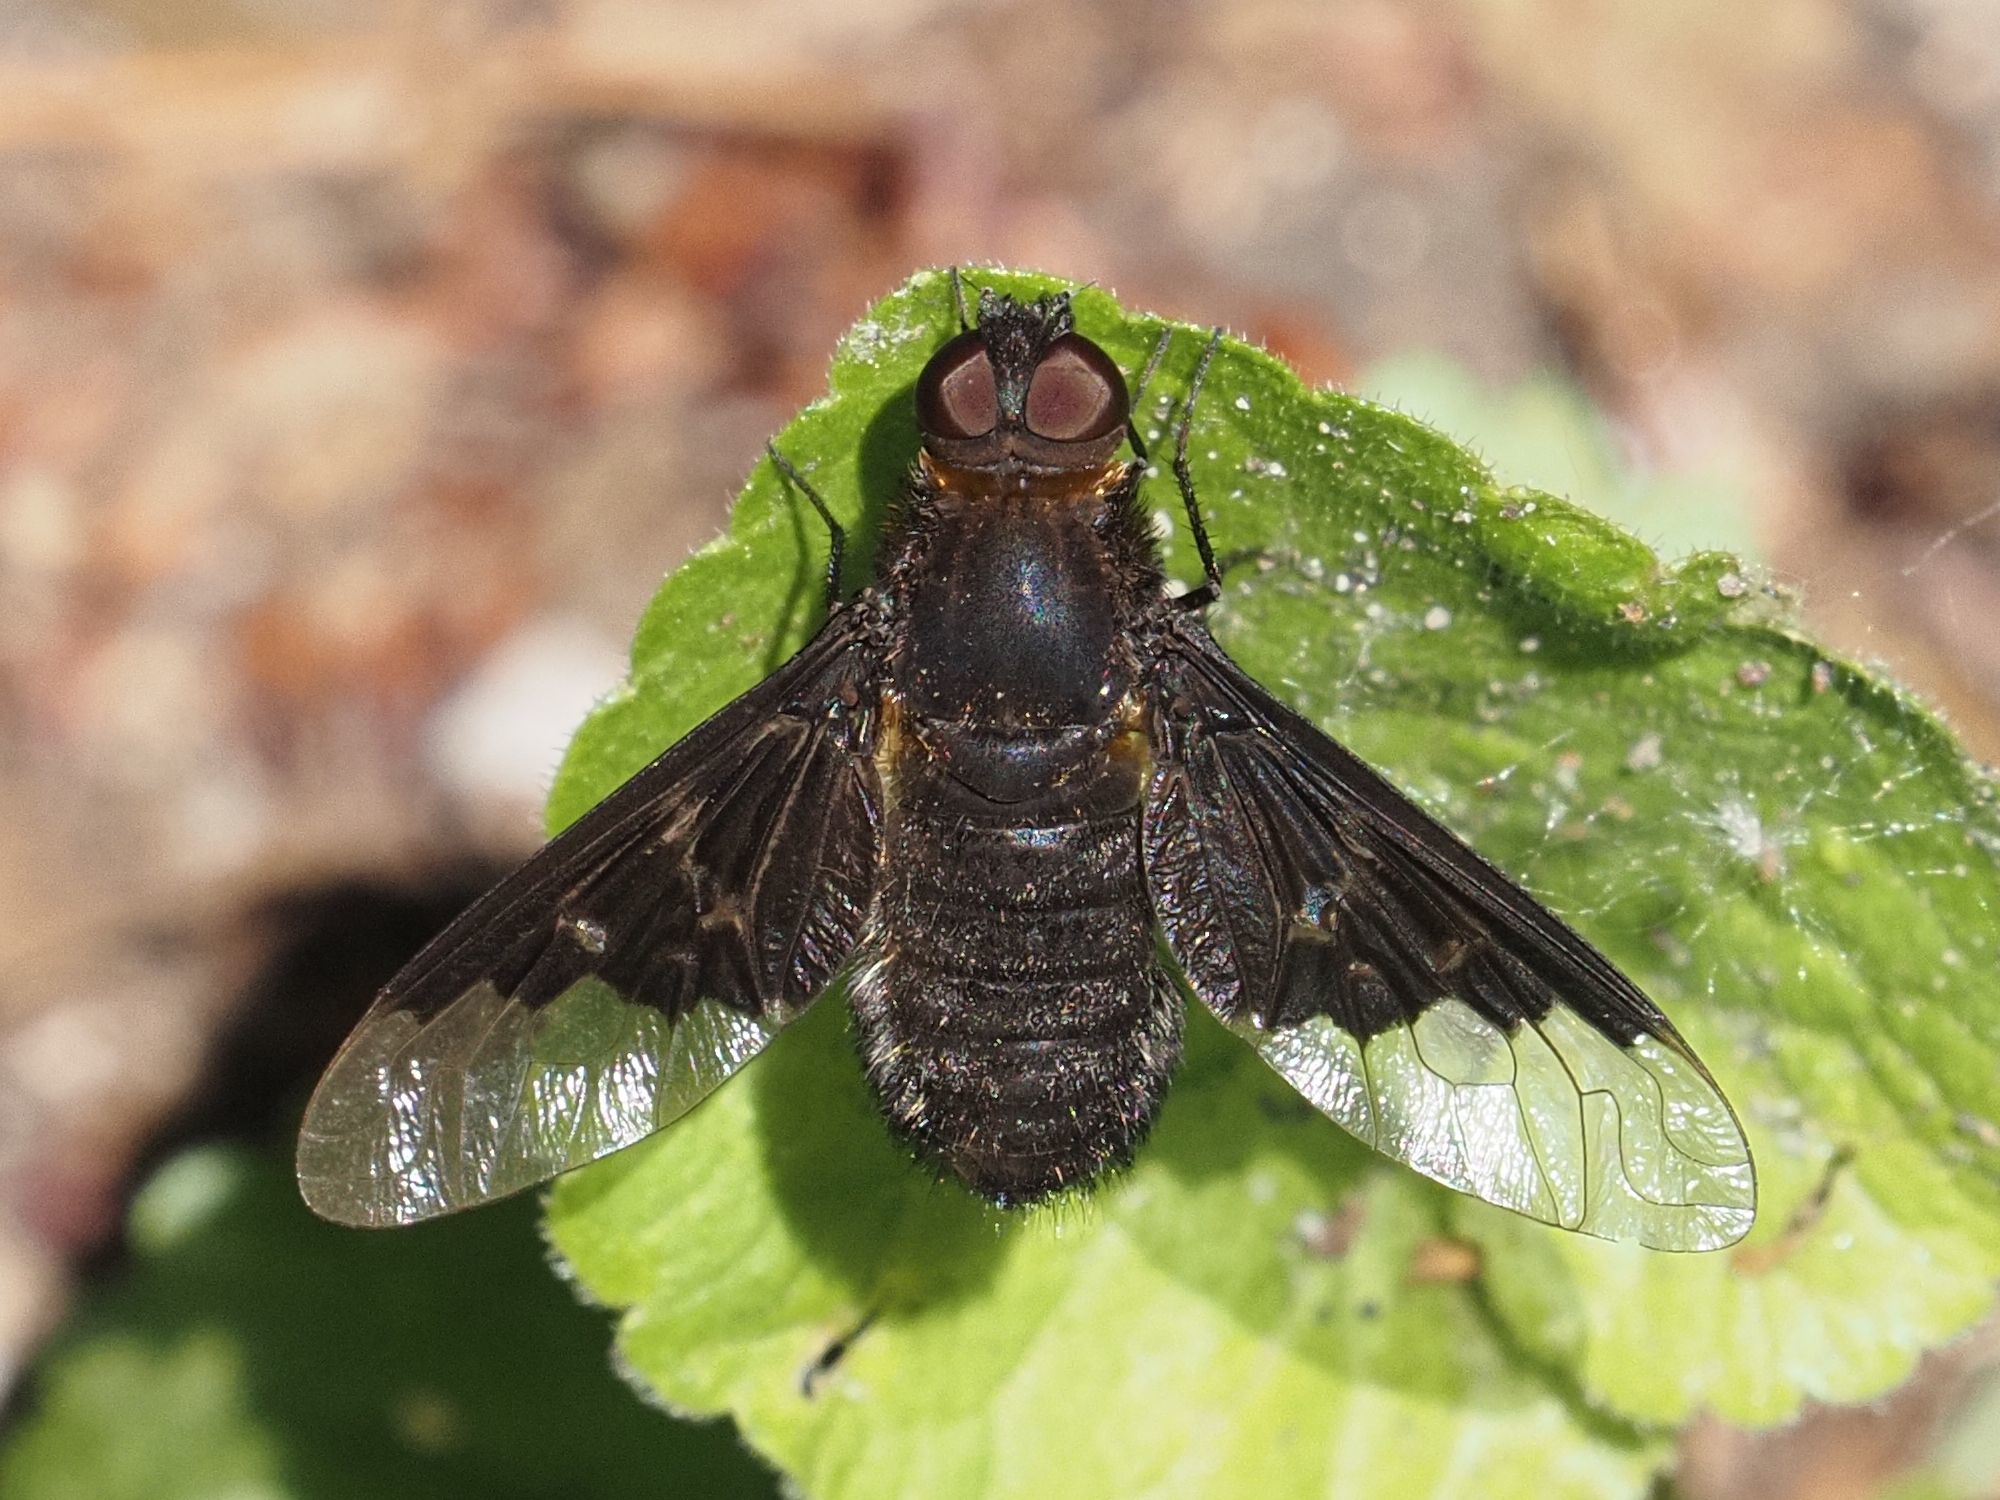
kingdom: Animalia
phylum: Arthropoda
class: Insecta
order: Diptera
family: Bombyliidae
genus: Hemipenthes
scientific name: Hemipenthes morio
